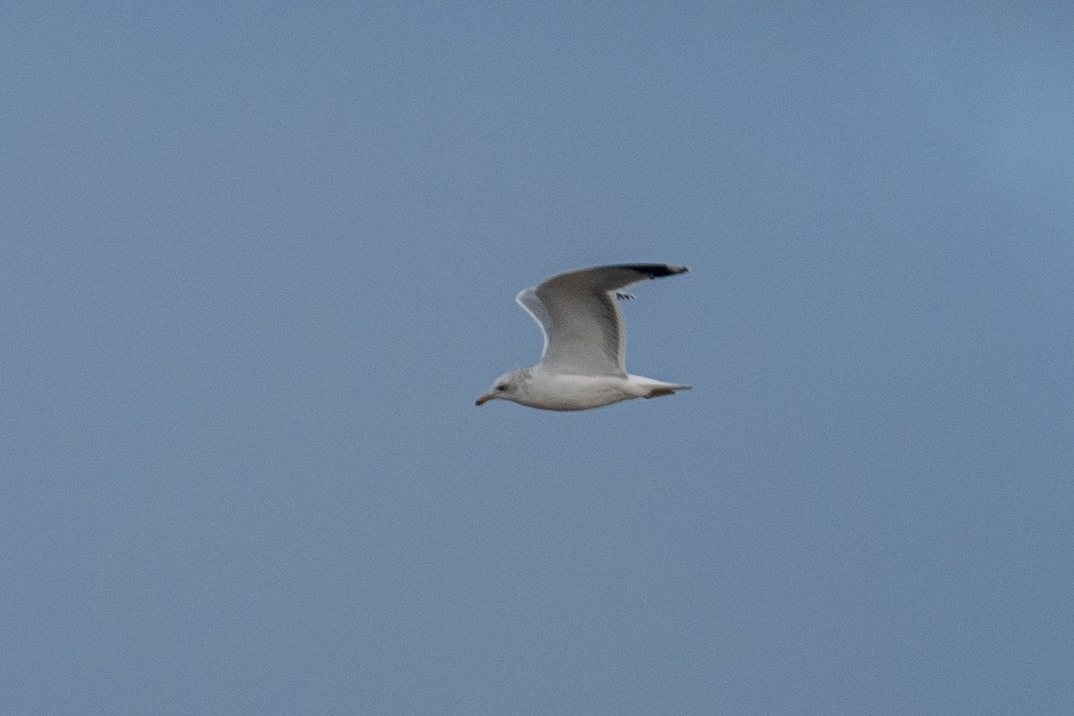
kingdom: Animalia
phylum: Chordata
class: Aves
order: Charadriiformes
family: Laridae
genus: Larus
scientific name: Larus californicus
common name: California gull
